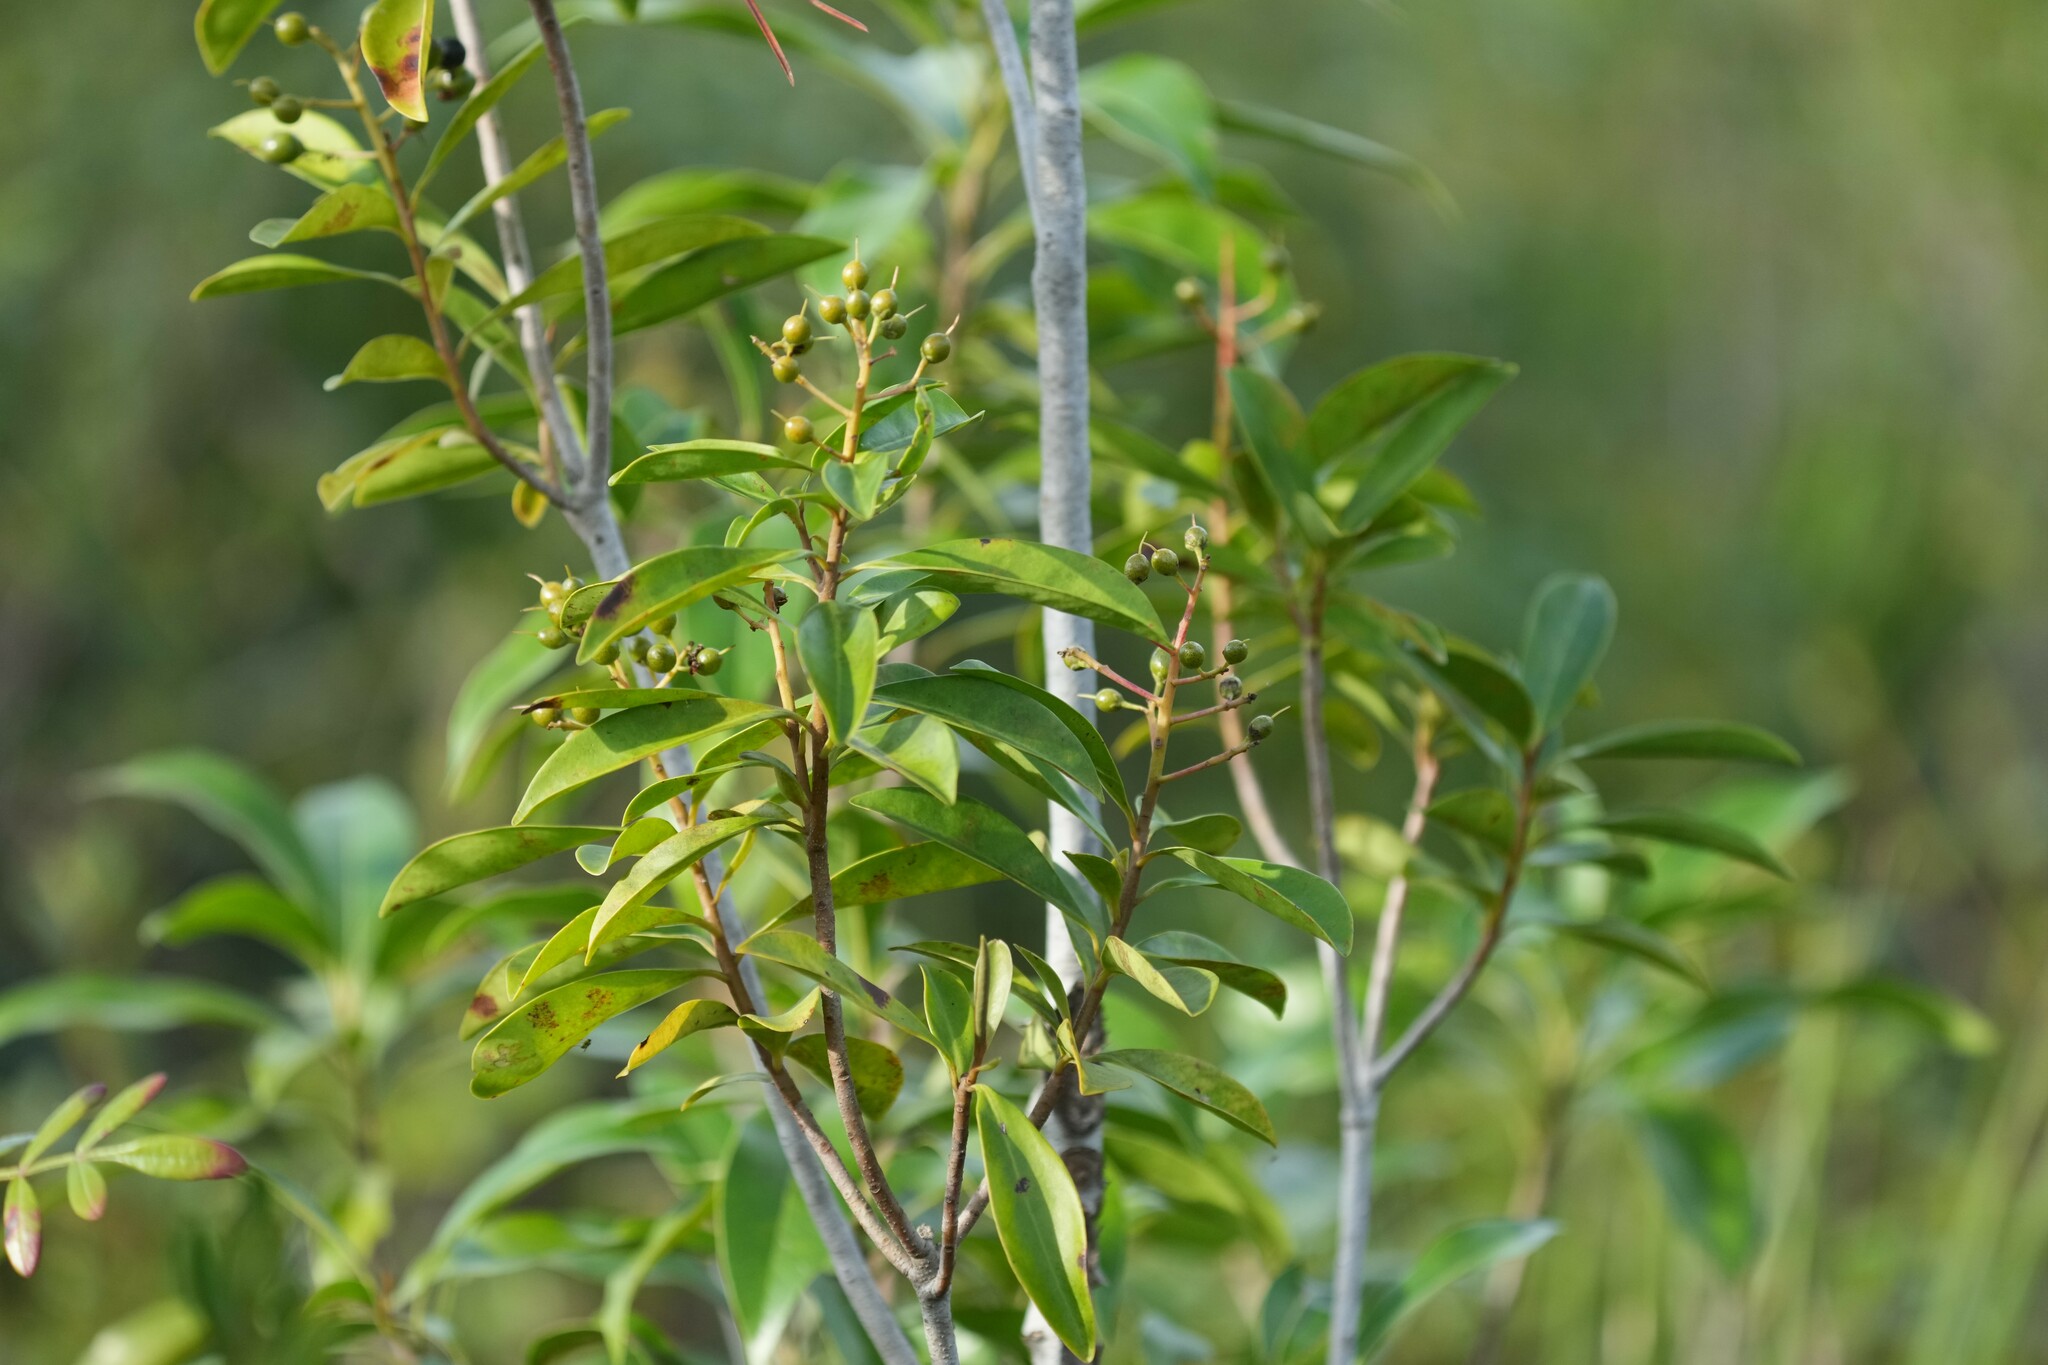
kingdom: Plantae
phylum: Tracheophyta
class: Magnoliopsida
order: Ericales
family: Primulaceae
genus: Ardisia
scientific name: Ardisia escallonioides
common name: Island marlberry
